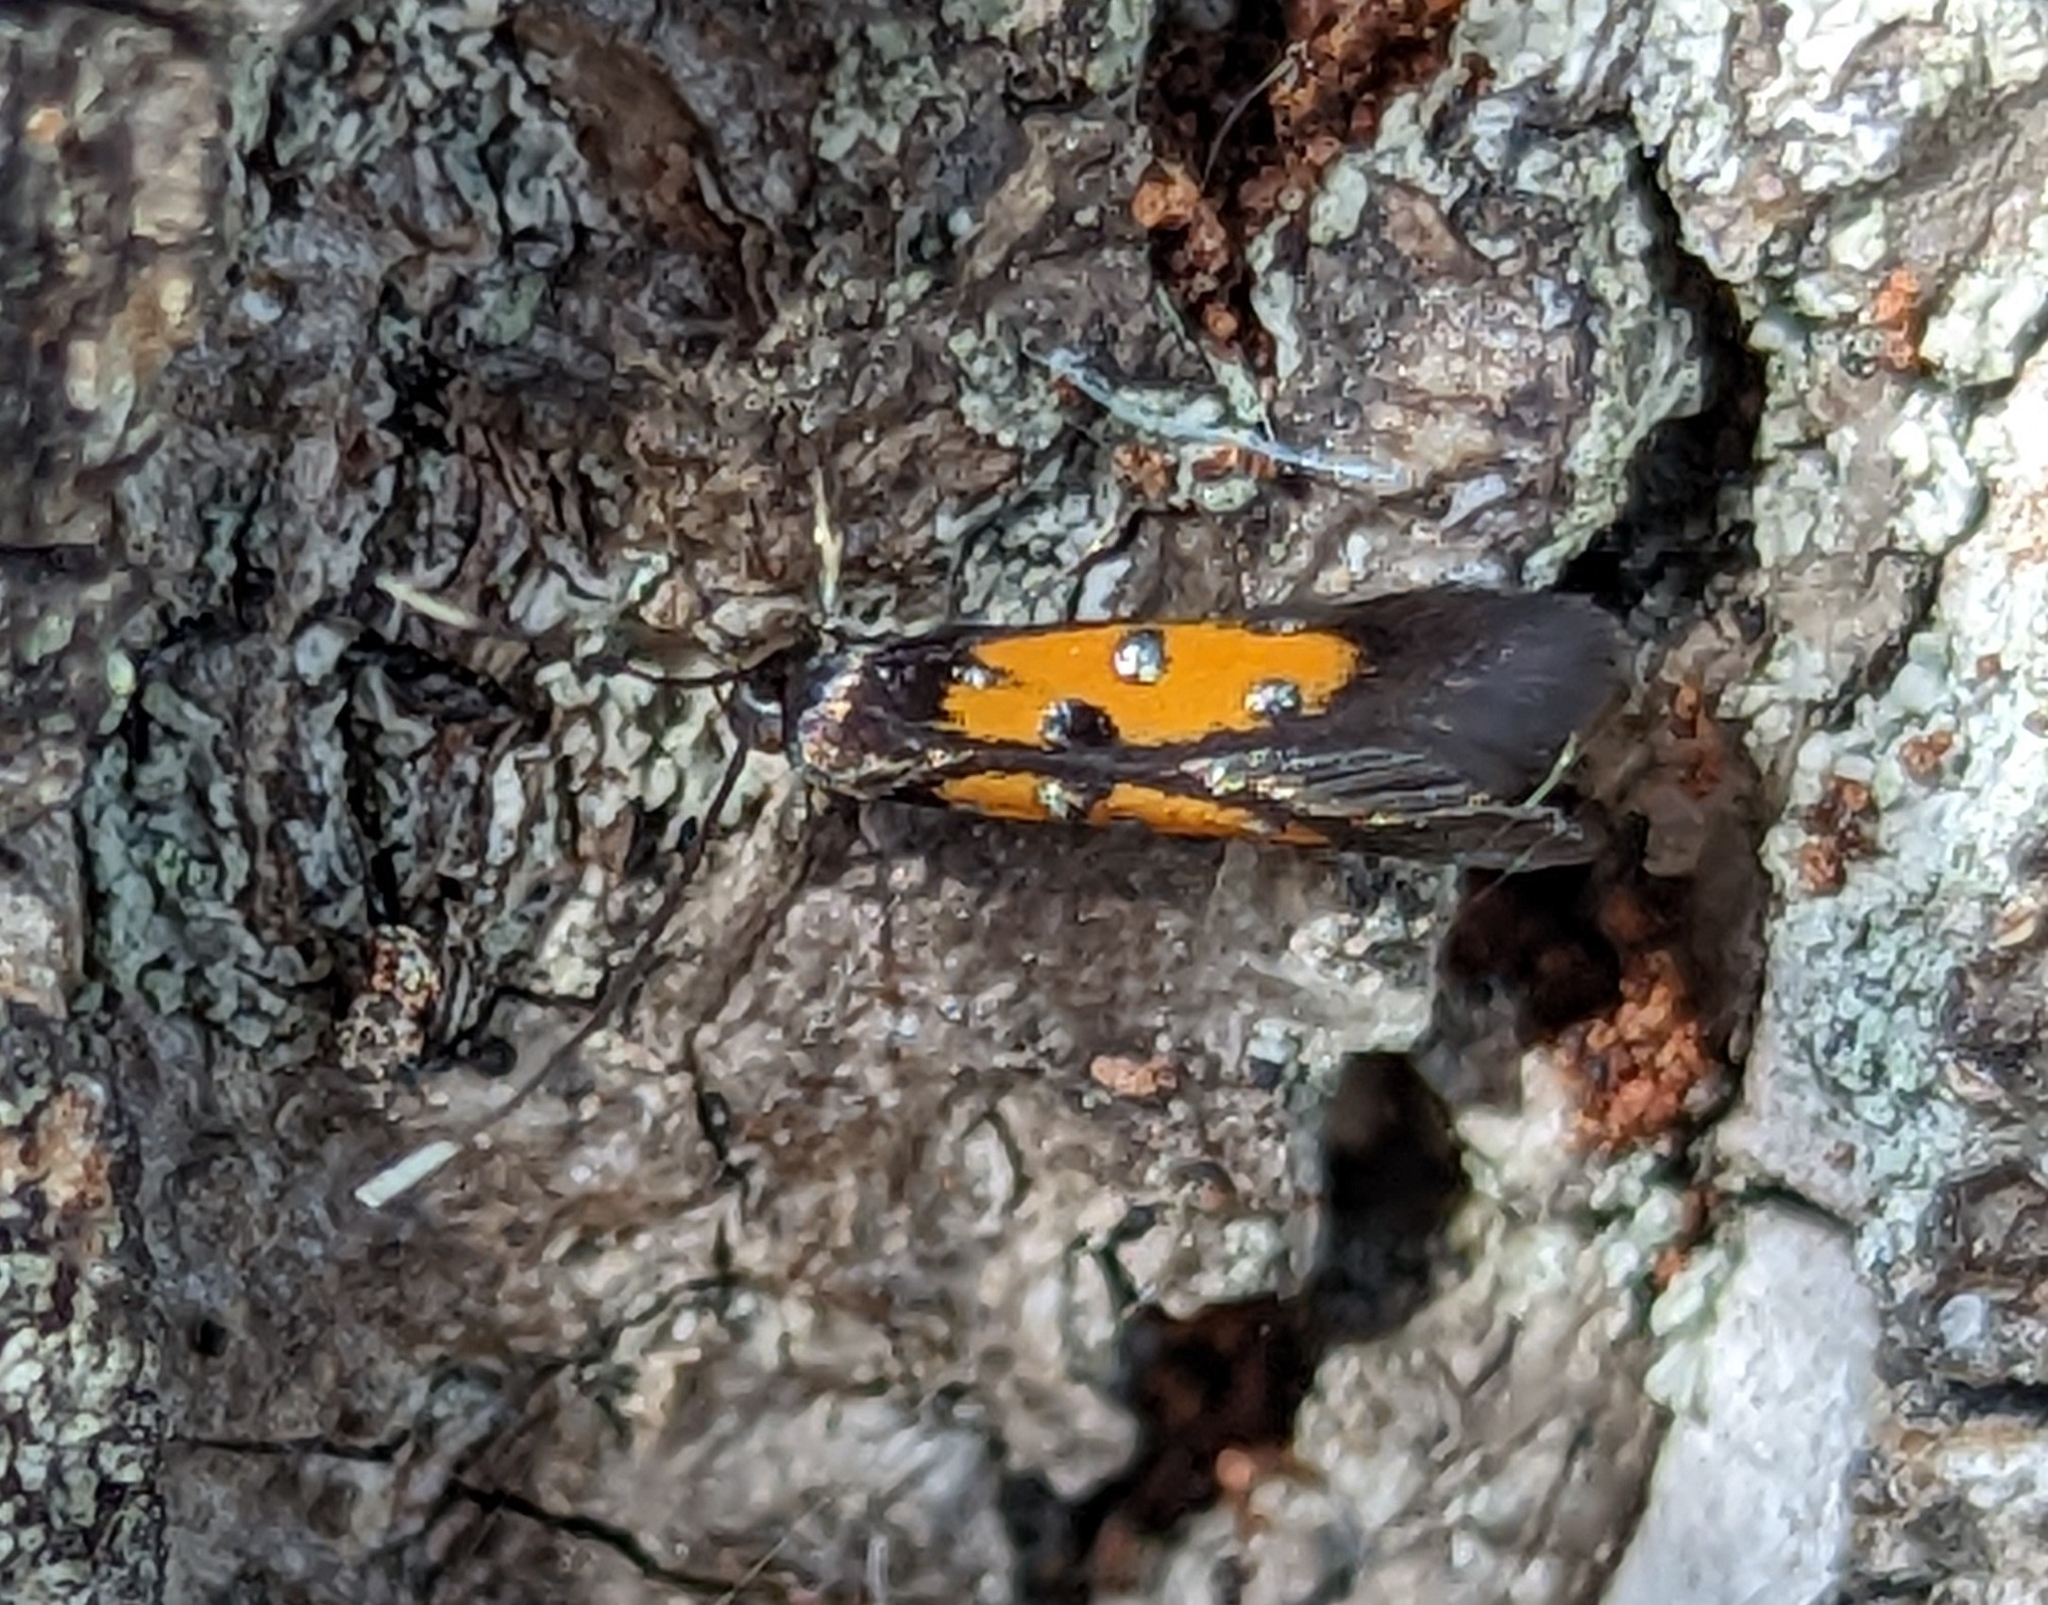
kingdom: Animalia
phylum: Arthropoda
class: Insecta
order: Lepidoptera
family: Elachistidae
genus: Chrysoclista
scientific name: Chrysoclista linneela
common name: Lime cosmet
